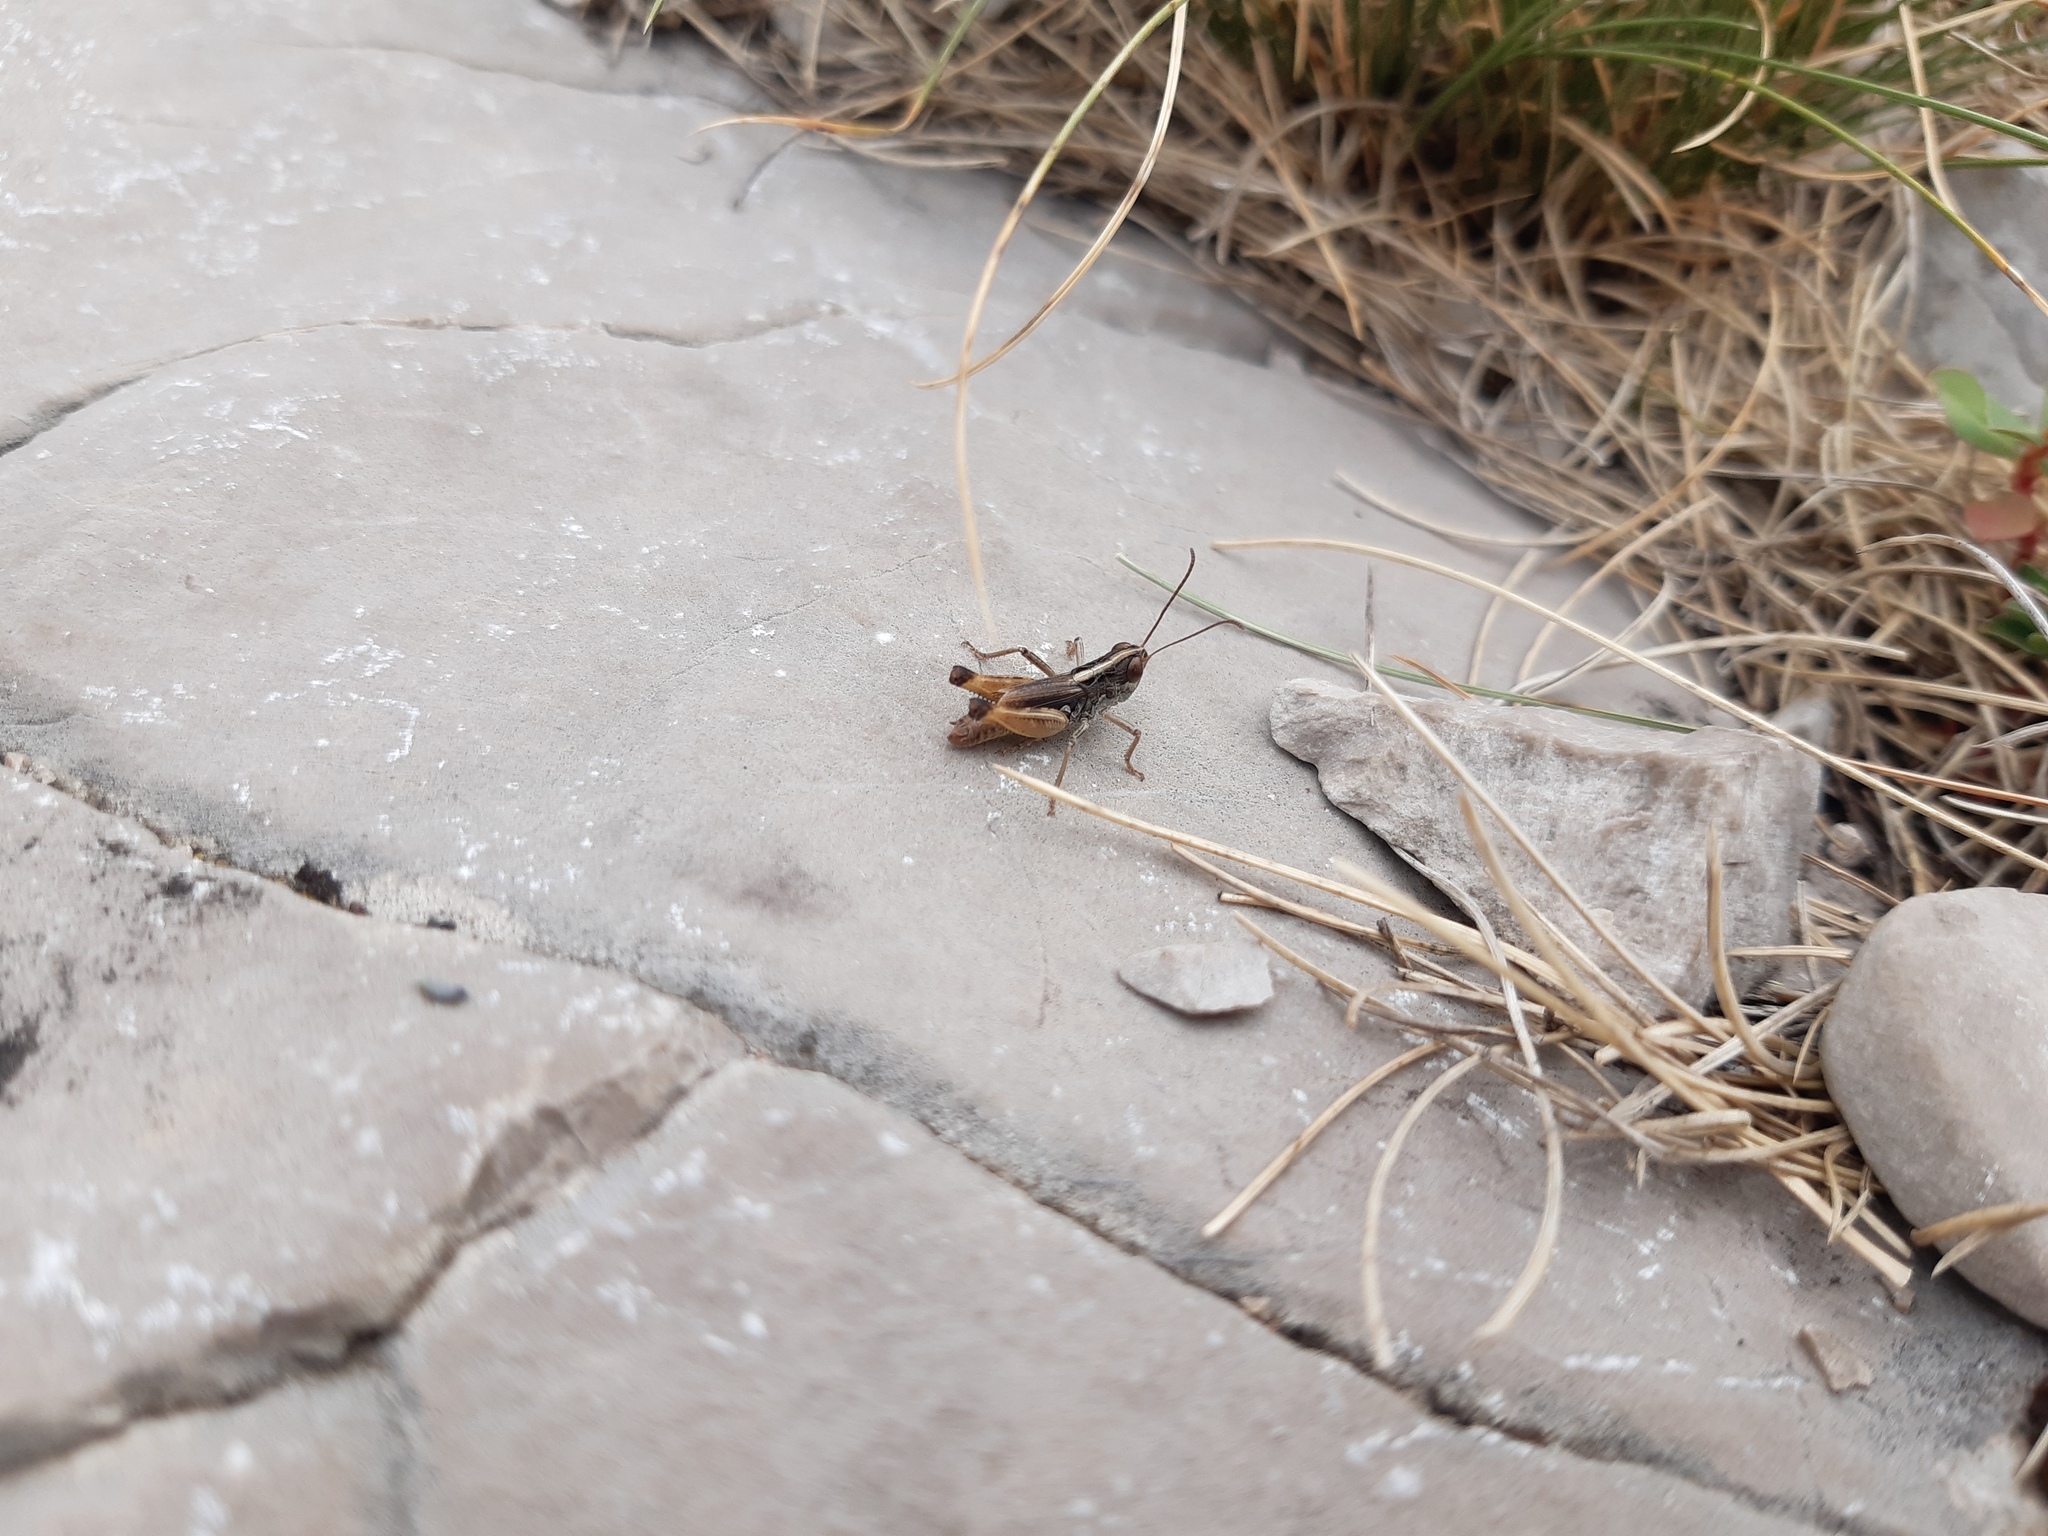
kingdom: Animalia
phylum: Arthropoda
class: Insecta
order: Orthoptera
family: Acrididae
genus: Rammeihippus
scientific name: Rammeihippus dinaricus
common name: Dinarian grasshopper
